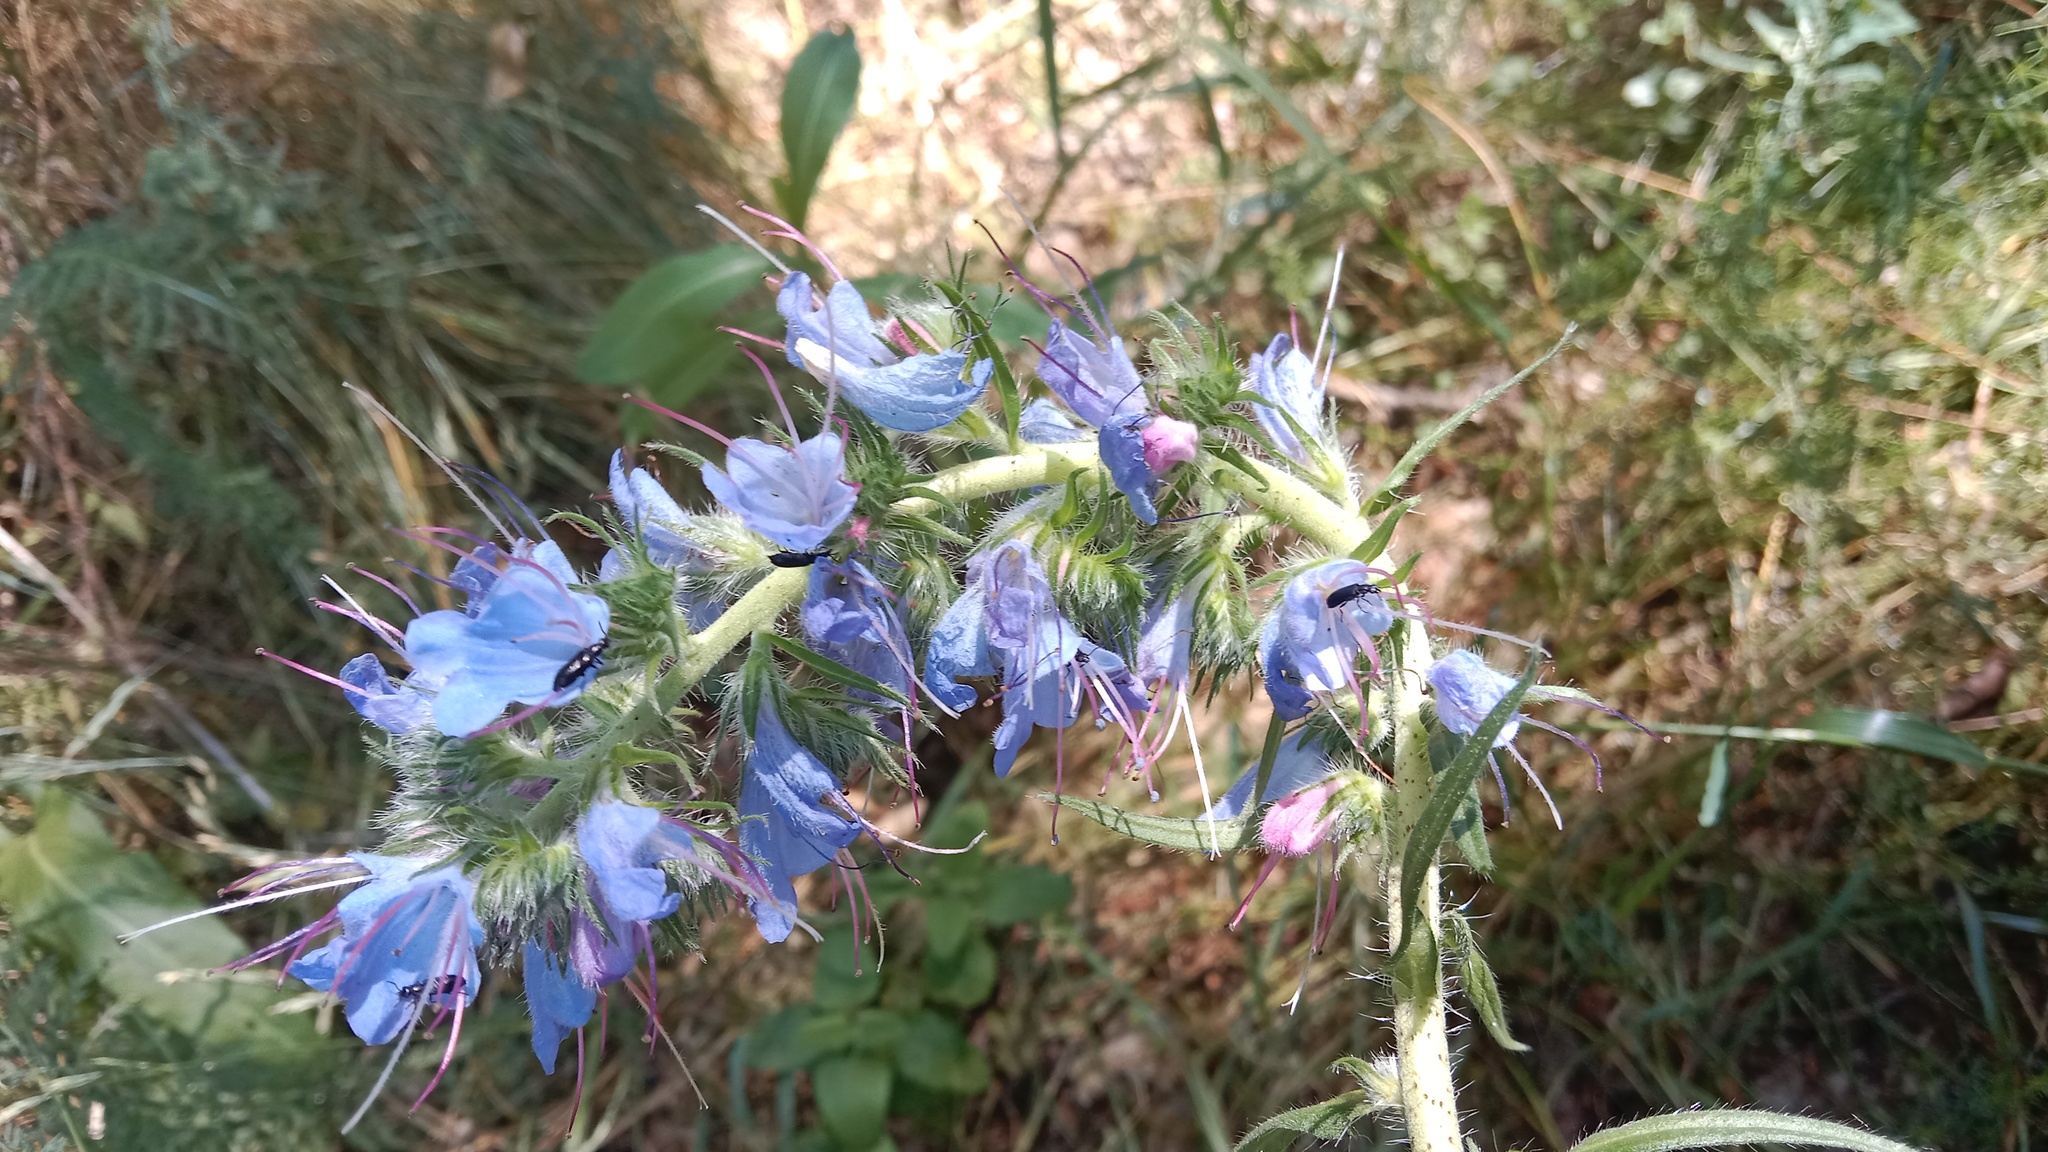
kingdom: Plantae
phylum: Tracheophyta
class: Magnoliopsida
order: Boraginales
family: Boraginaceae
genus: Echium
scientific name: Echium vulgare
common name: Common viper's bugloss
